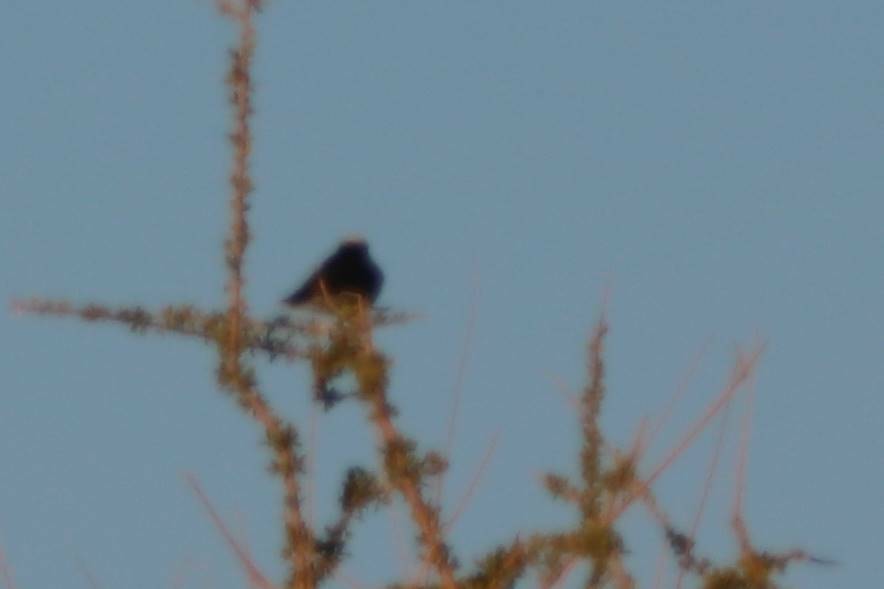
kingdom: Animalia
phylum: Chordata
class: Aves
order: Passeriformes
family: Muscicapidae
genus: Oenanthe
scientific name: Oenanthe leucopyga
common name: White-crowned wheatear
